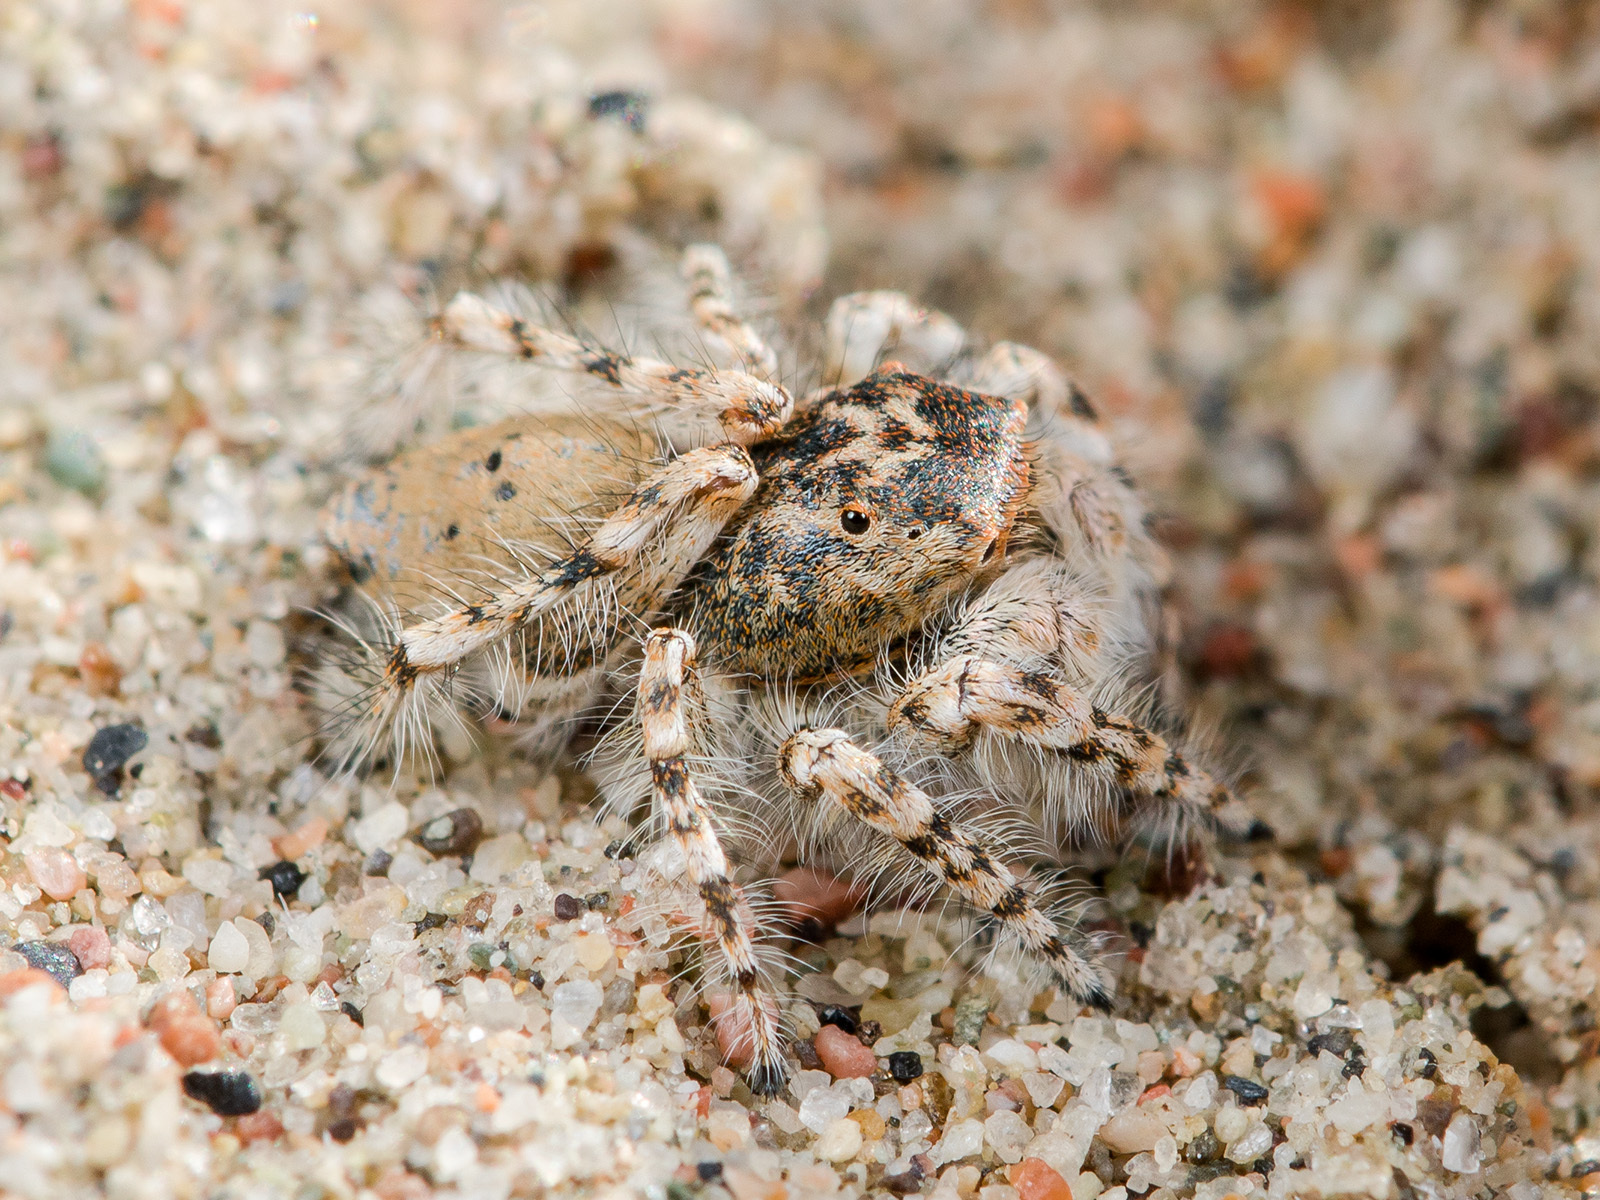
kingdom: Animalia
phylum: Arthropoda
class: Arachnida
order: Araneae
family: Salticidae
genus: Yllenus
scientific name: Yllenus uiguricus
